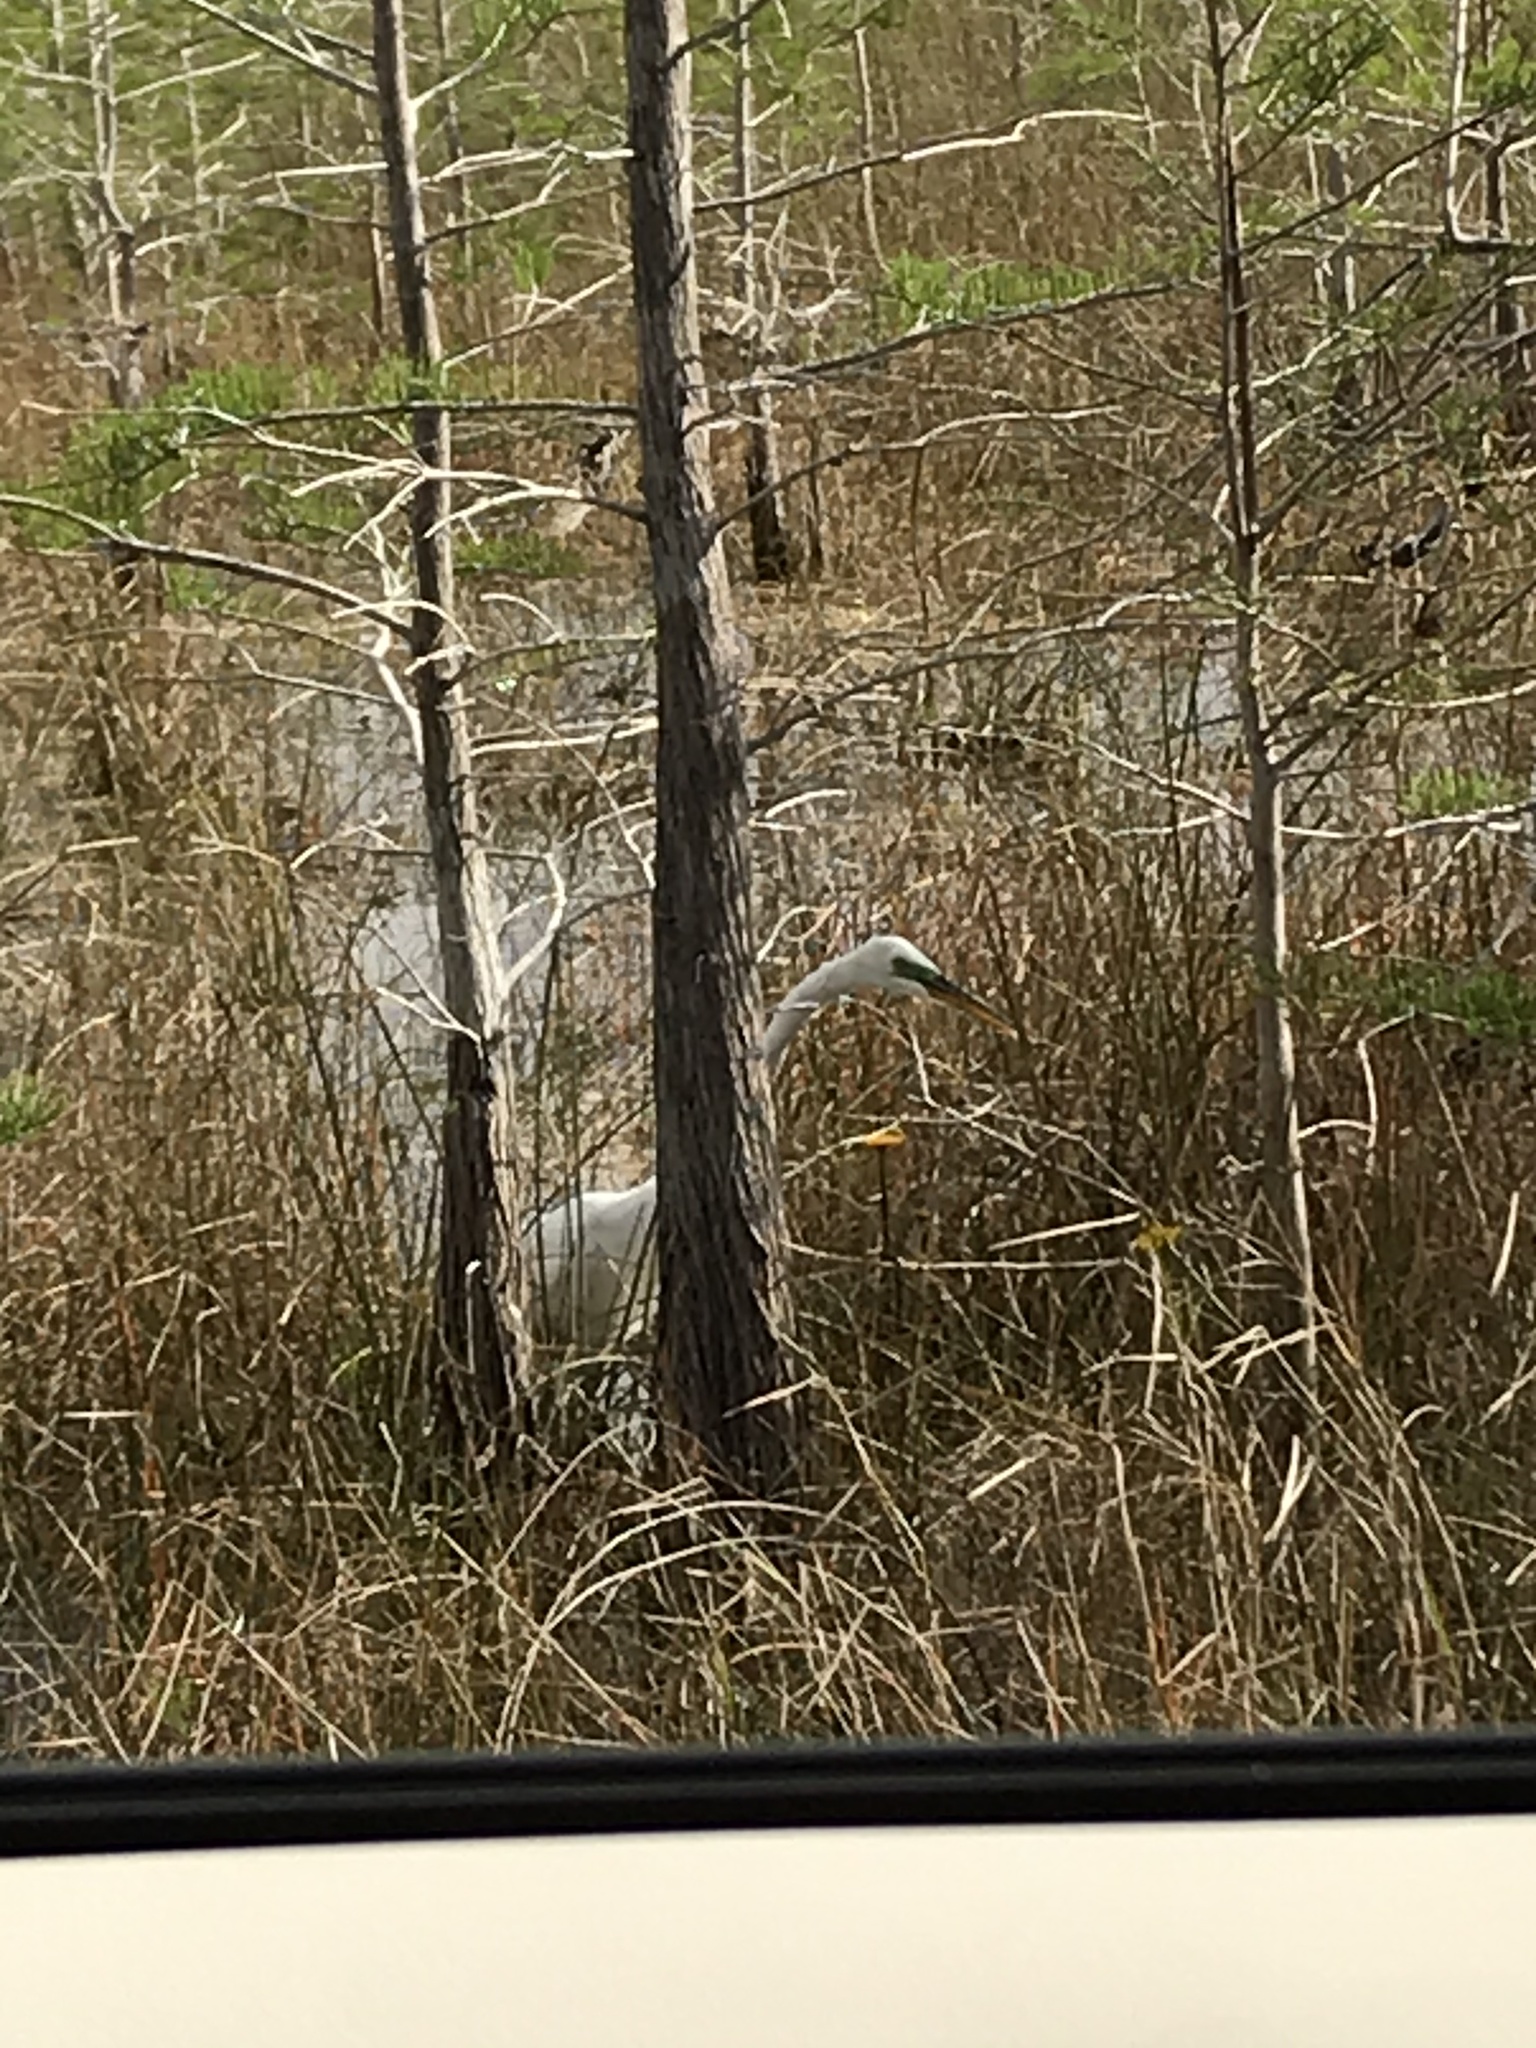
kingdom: Animalia
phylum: Chordata
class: Aves
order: Pelecaniformes
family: Ardeidae
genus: Ardea
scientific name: Ardea alba
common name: Great egret
